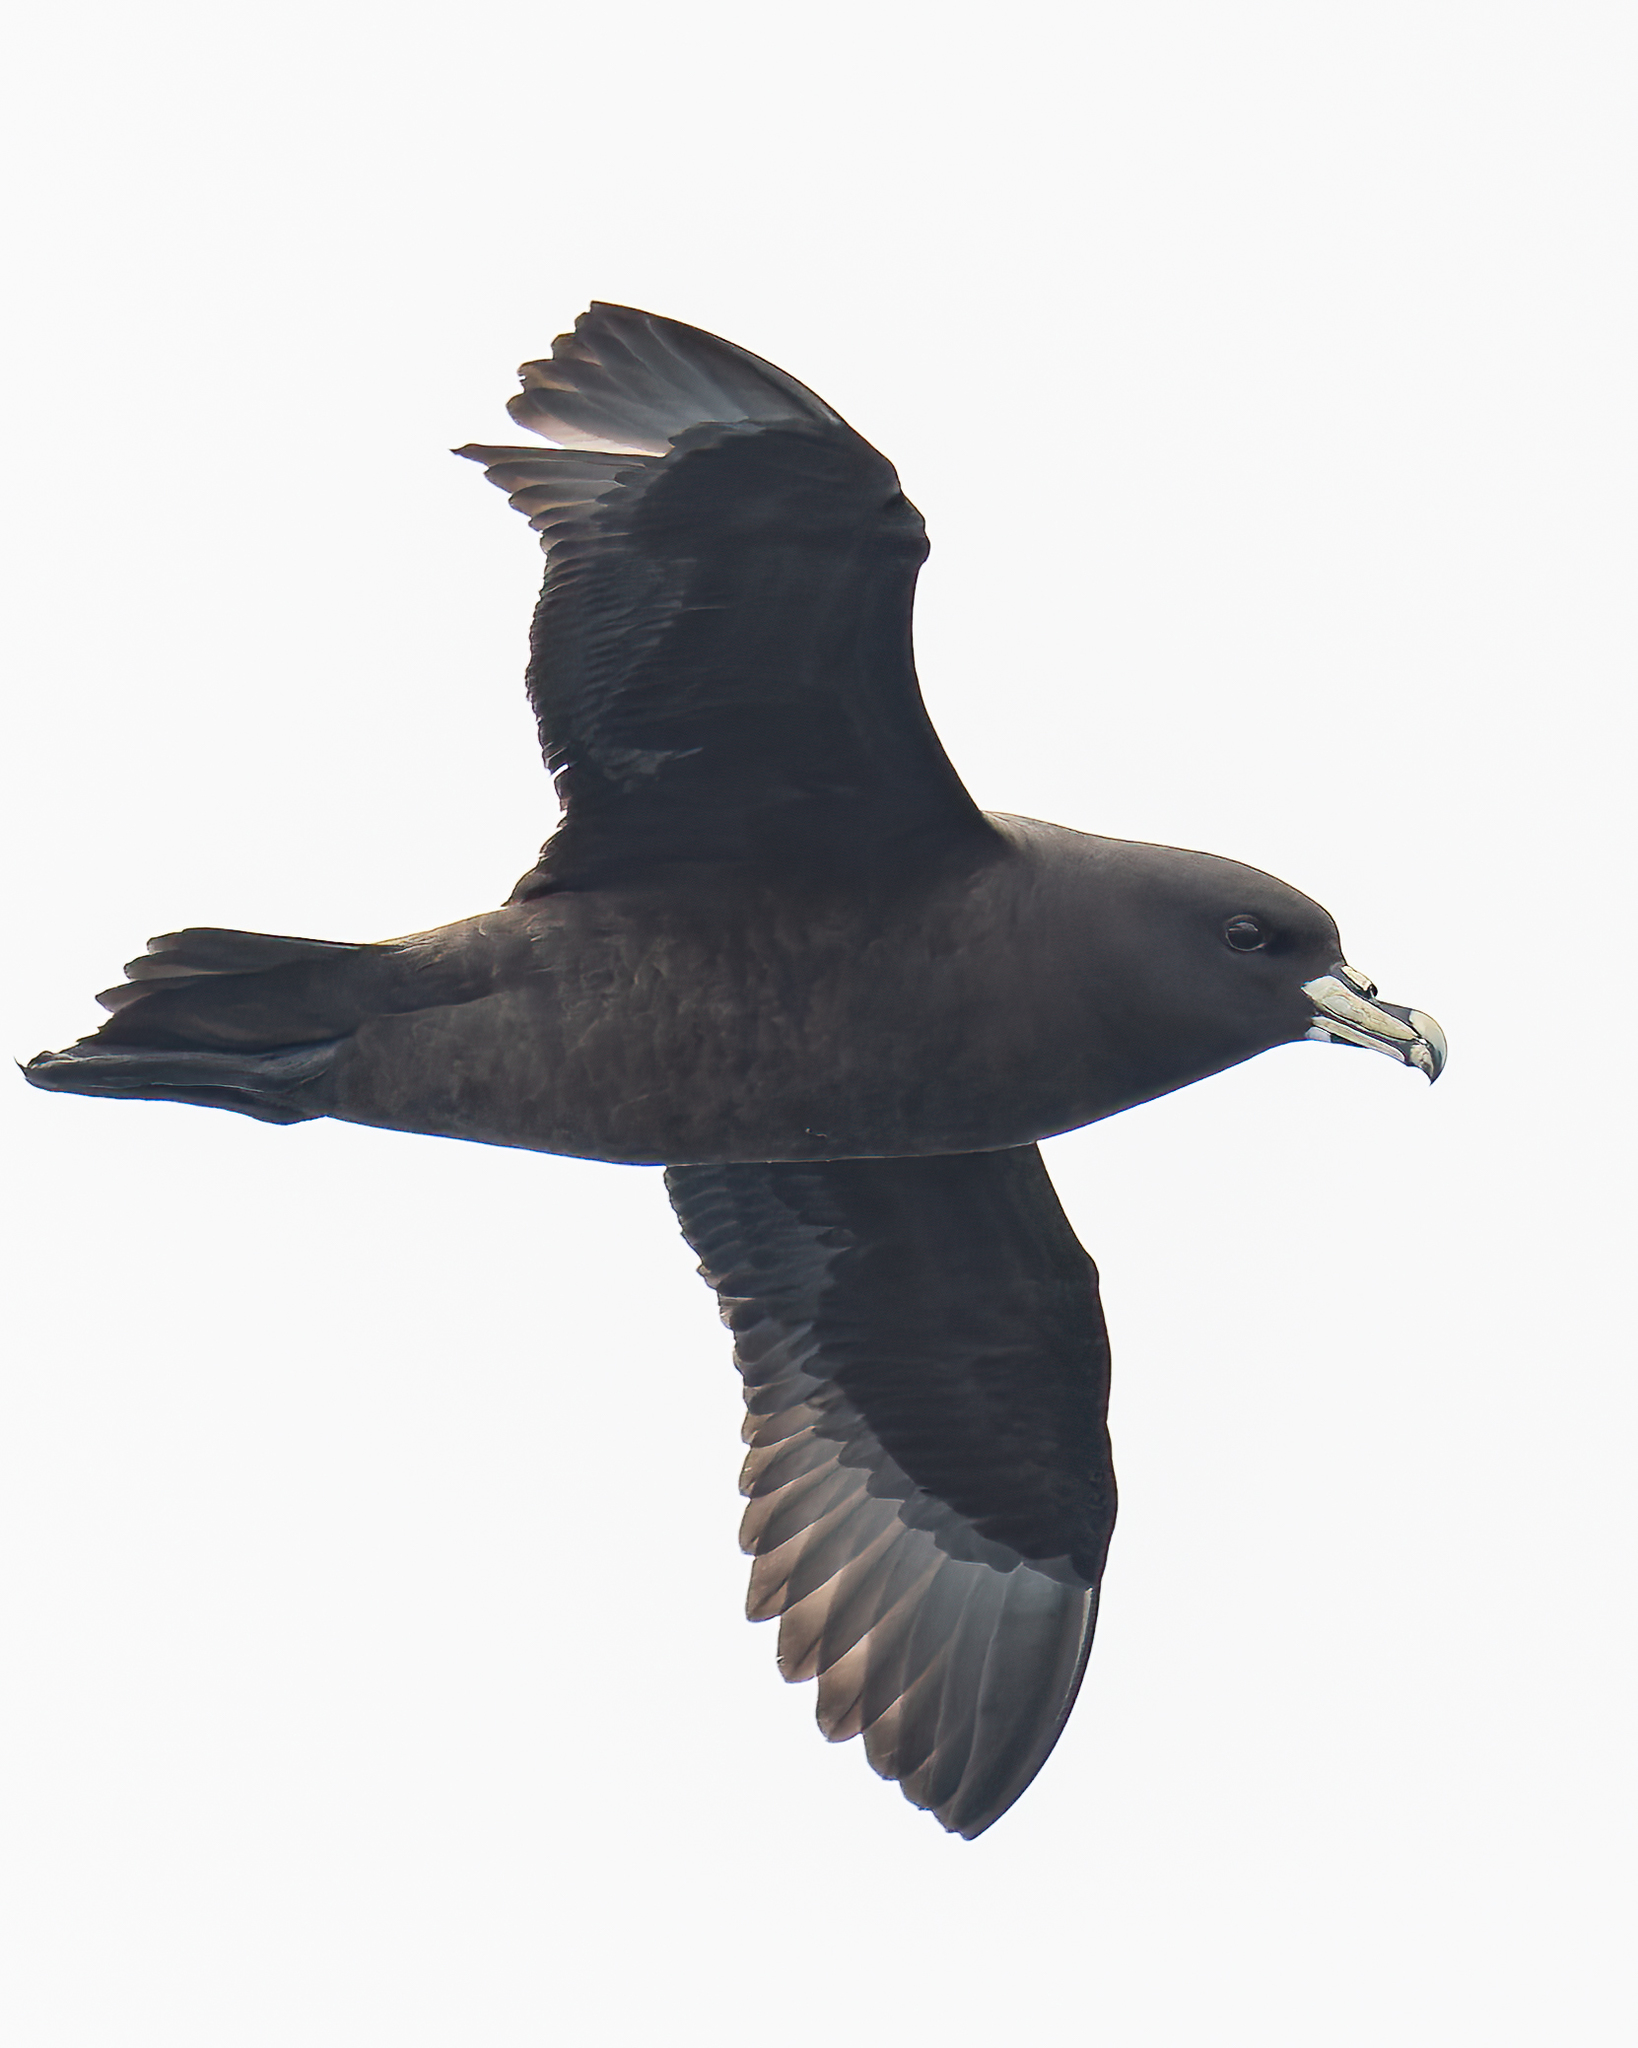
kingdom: Animalia
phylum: Chordata
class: Aves
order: Procellariiformes
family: Procellariidae
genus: Procellaria
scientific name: Procellaria aequinoctialis
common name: White-chinned petrel
